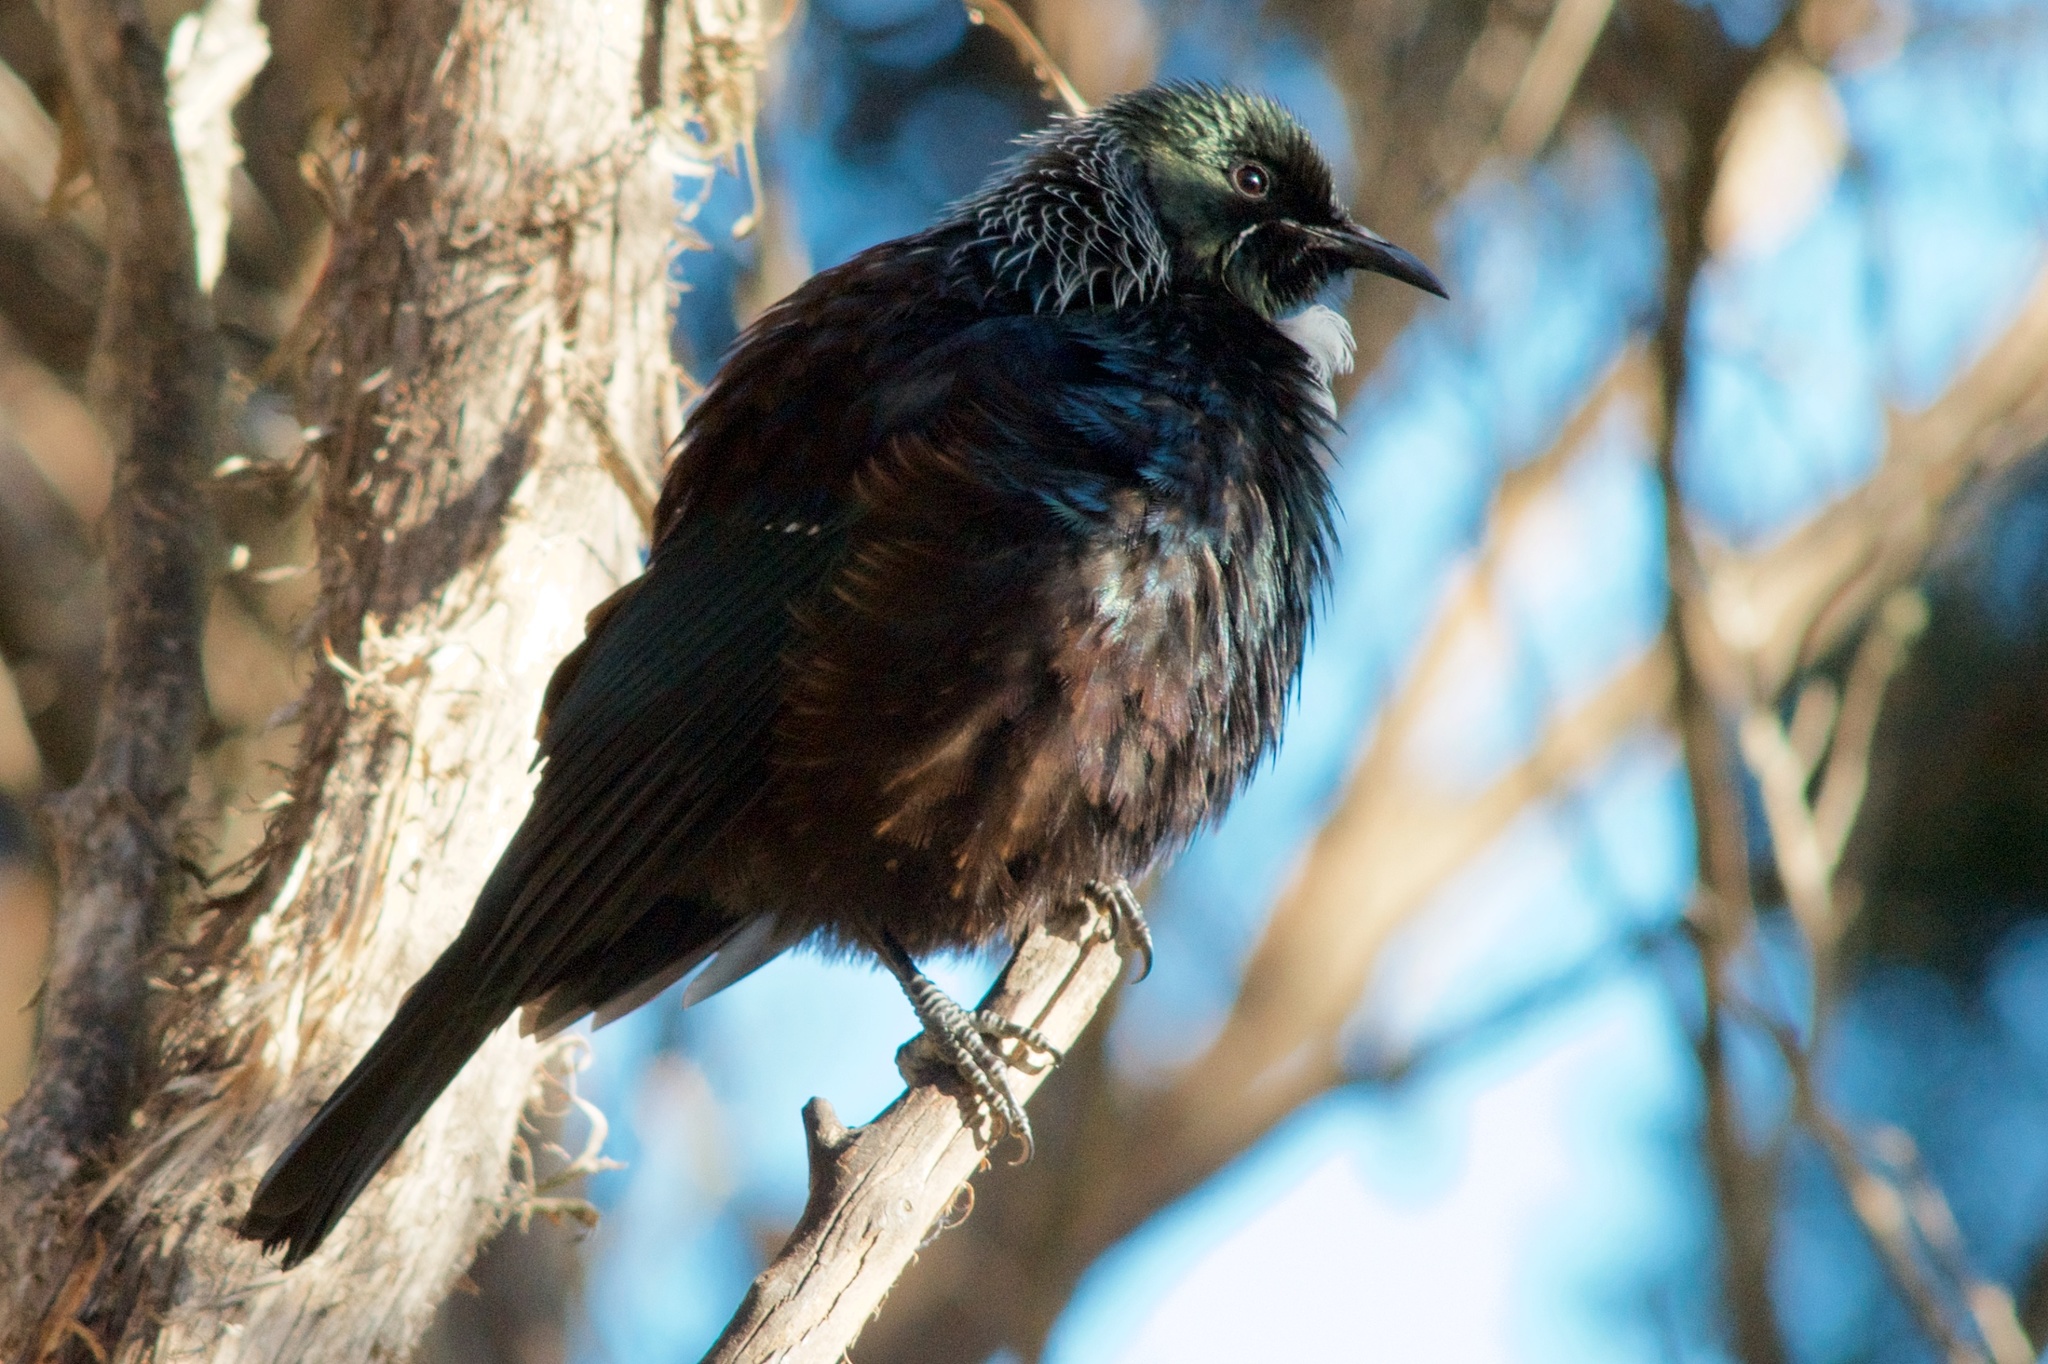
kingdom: Animalia
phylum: Chordata
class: Aves
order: Passeriformes
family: Meliphagidae
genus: Prosthemadera
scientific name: Prosthemadera novaeseelandiae
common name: Tui
